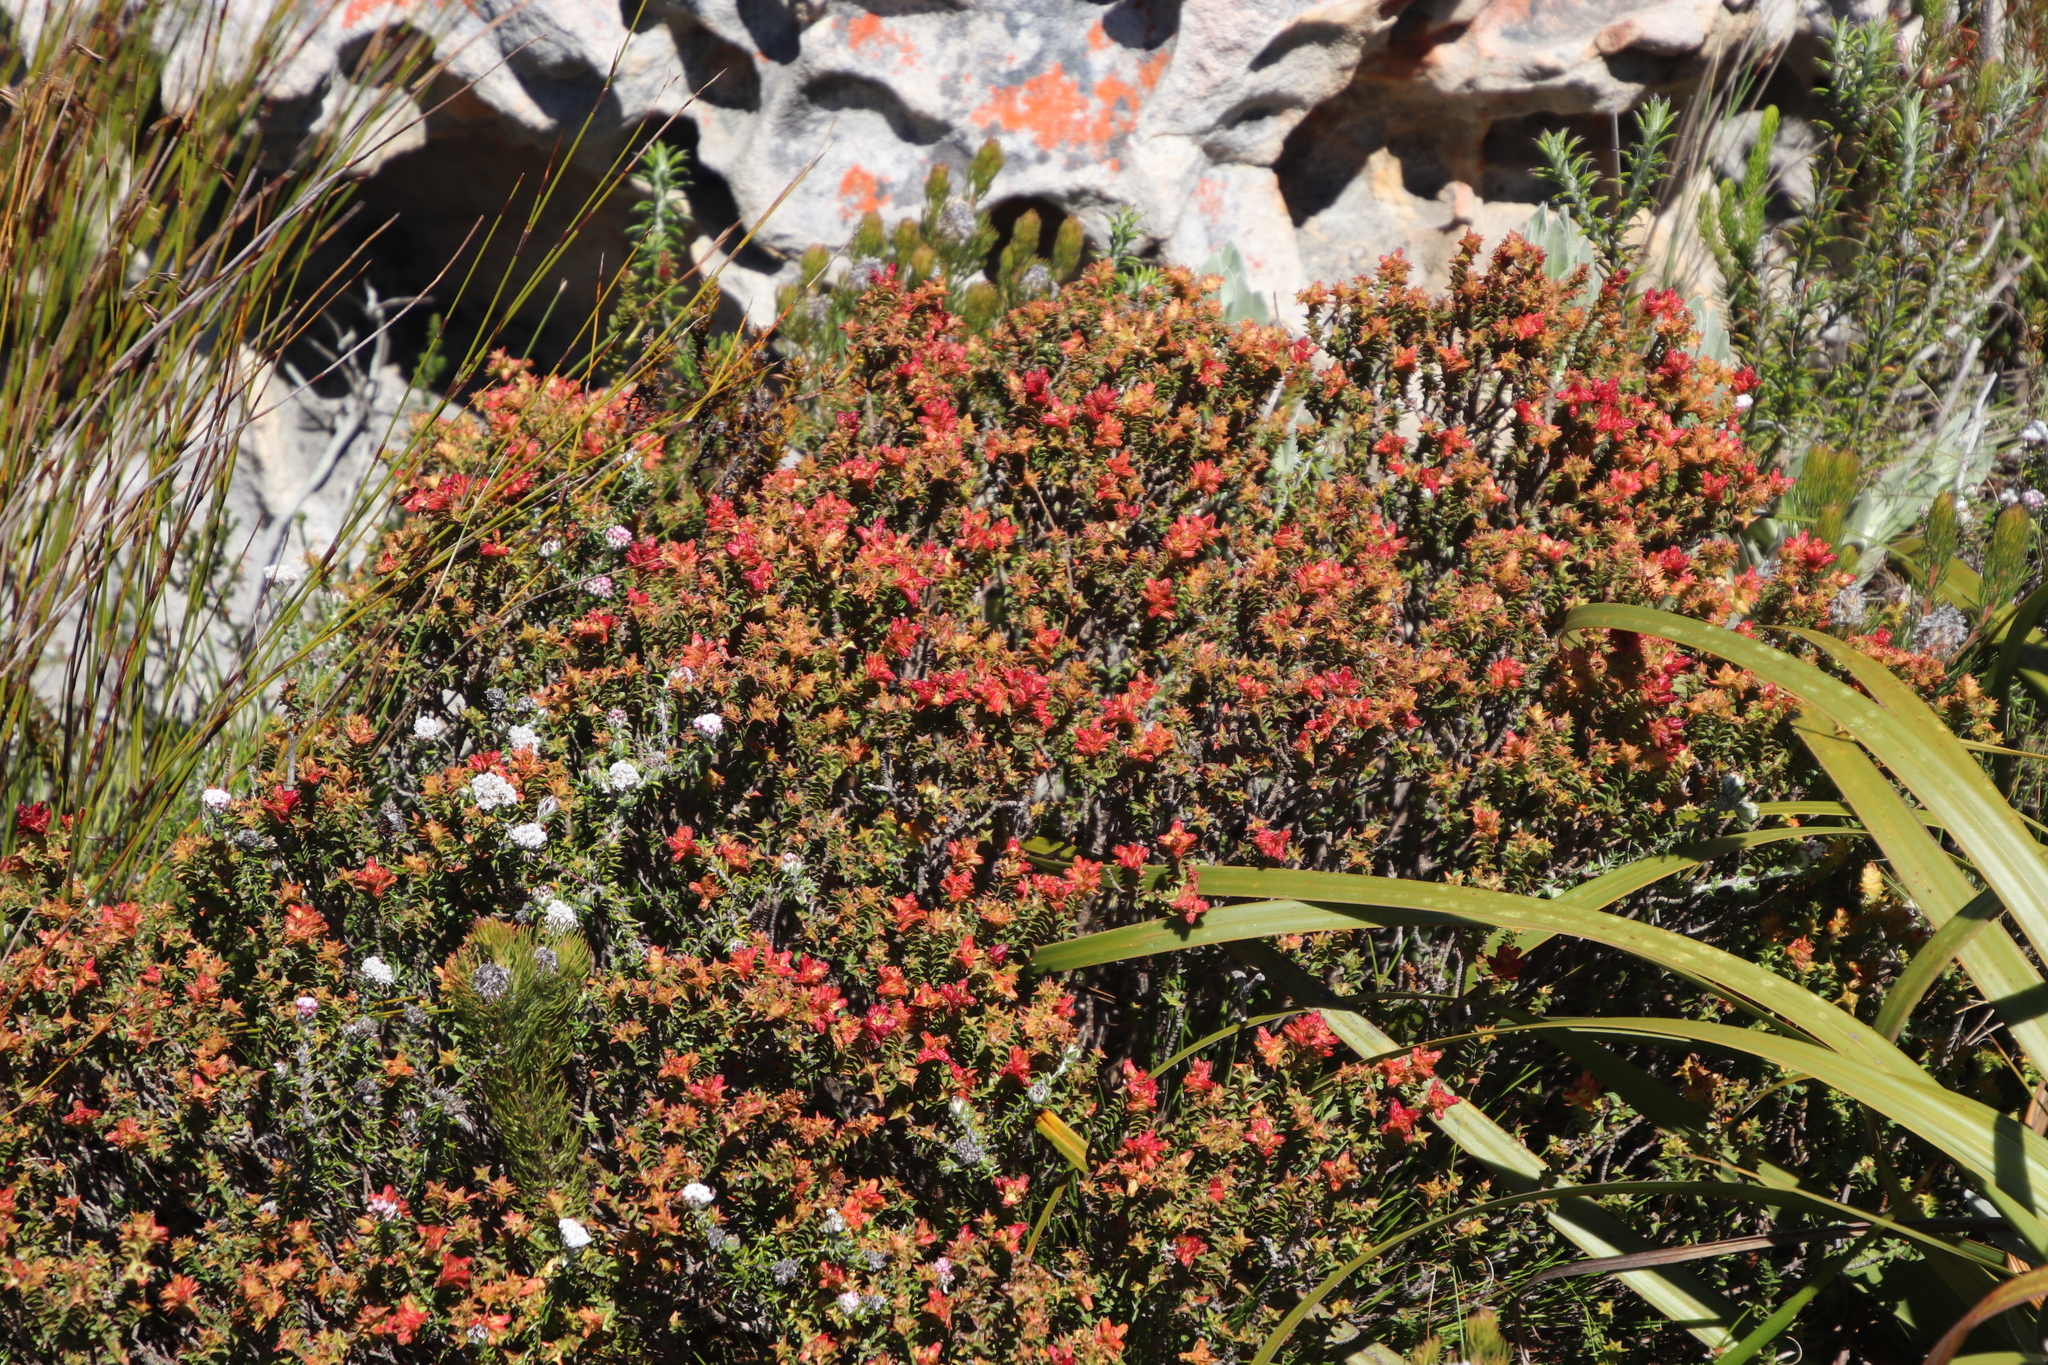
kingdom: Plantae
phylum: Tracheophyta
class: Magnoliopsida
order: Myrtales
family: Penaeaceae
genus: Penaea
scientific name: Penaea mucronata
